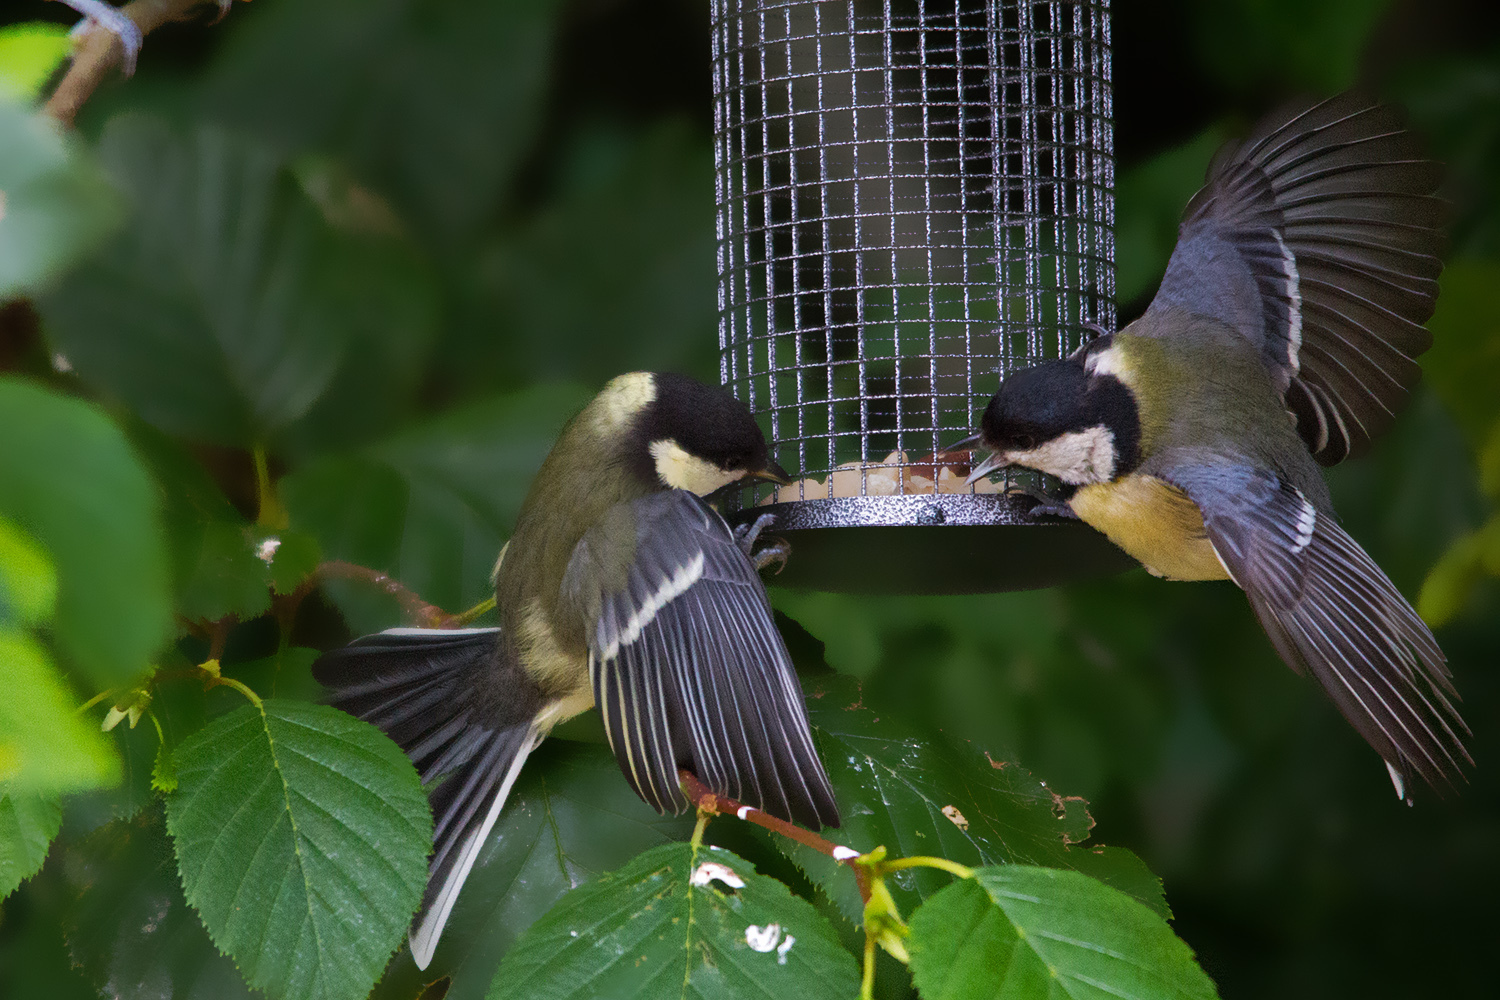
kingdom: Animalia
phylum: Chordata
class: Aves
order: Passeriformes
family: Paridae
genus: Parus
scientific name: Parus major
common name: Great tit
